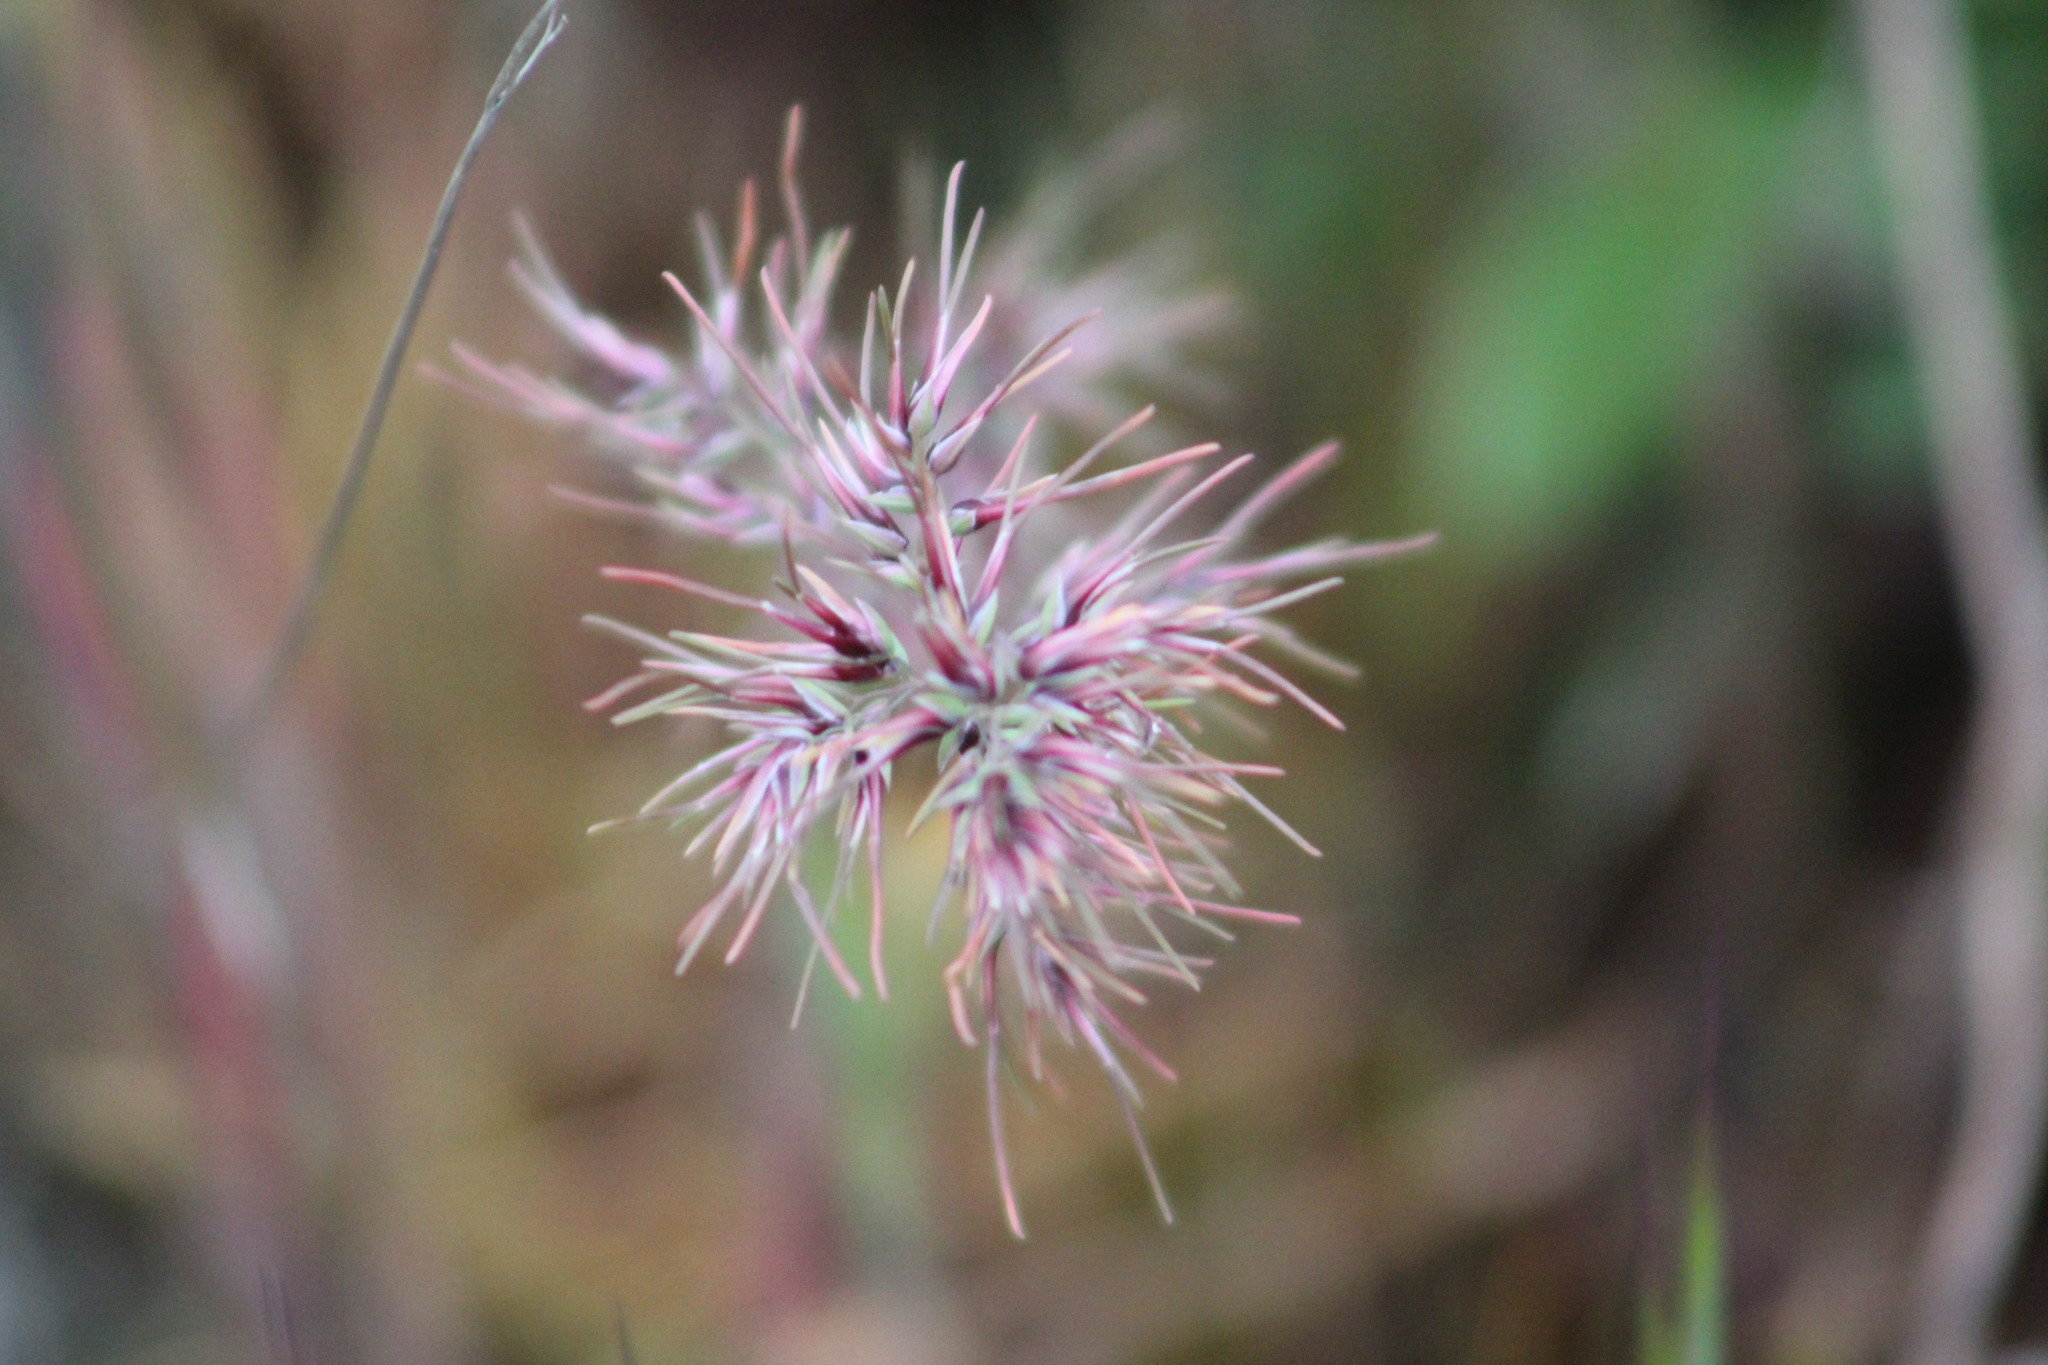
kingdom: Plantae
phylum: Tracheophyta
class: Liliopsida
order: Poales
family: Poaceae
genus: Poa
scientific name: Poa bulbosa
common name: Bulbous bluegrass
